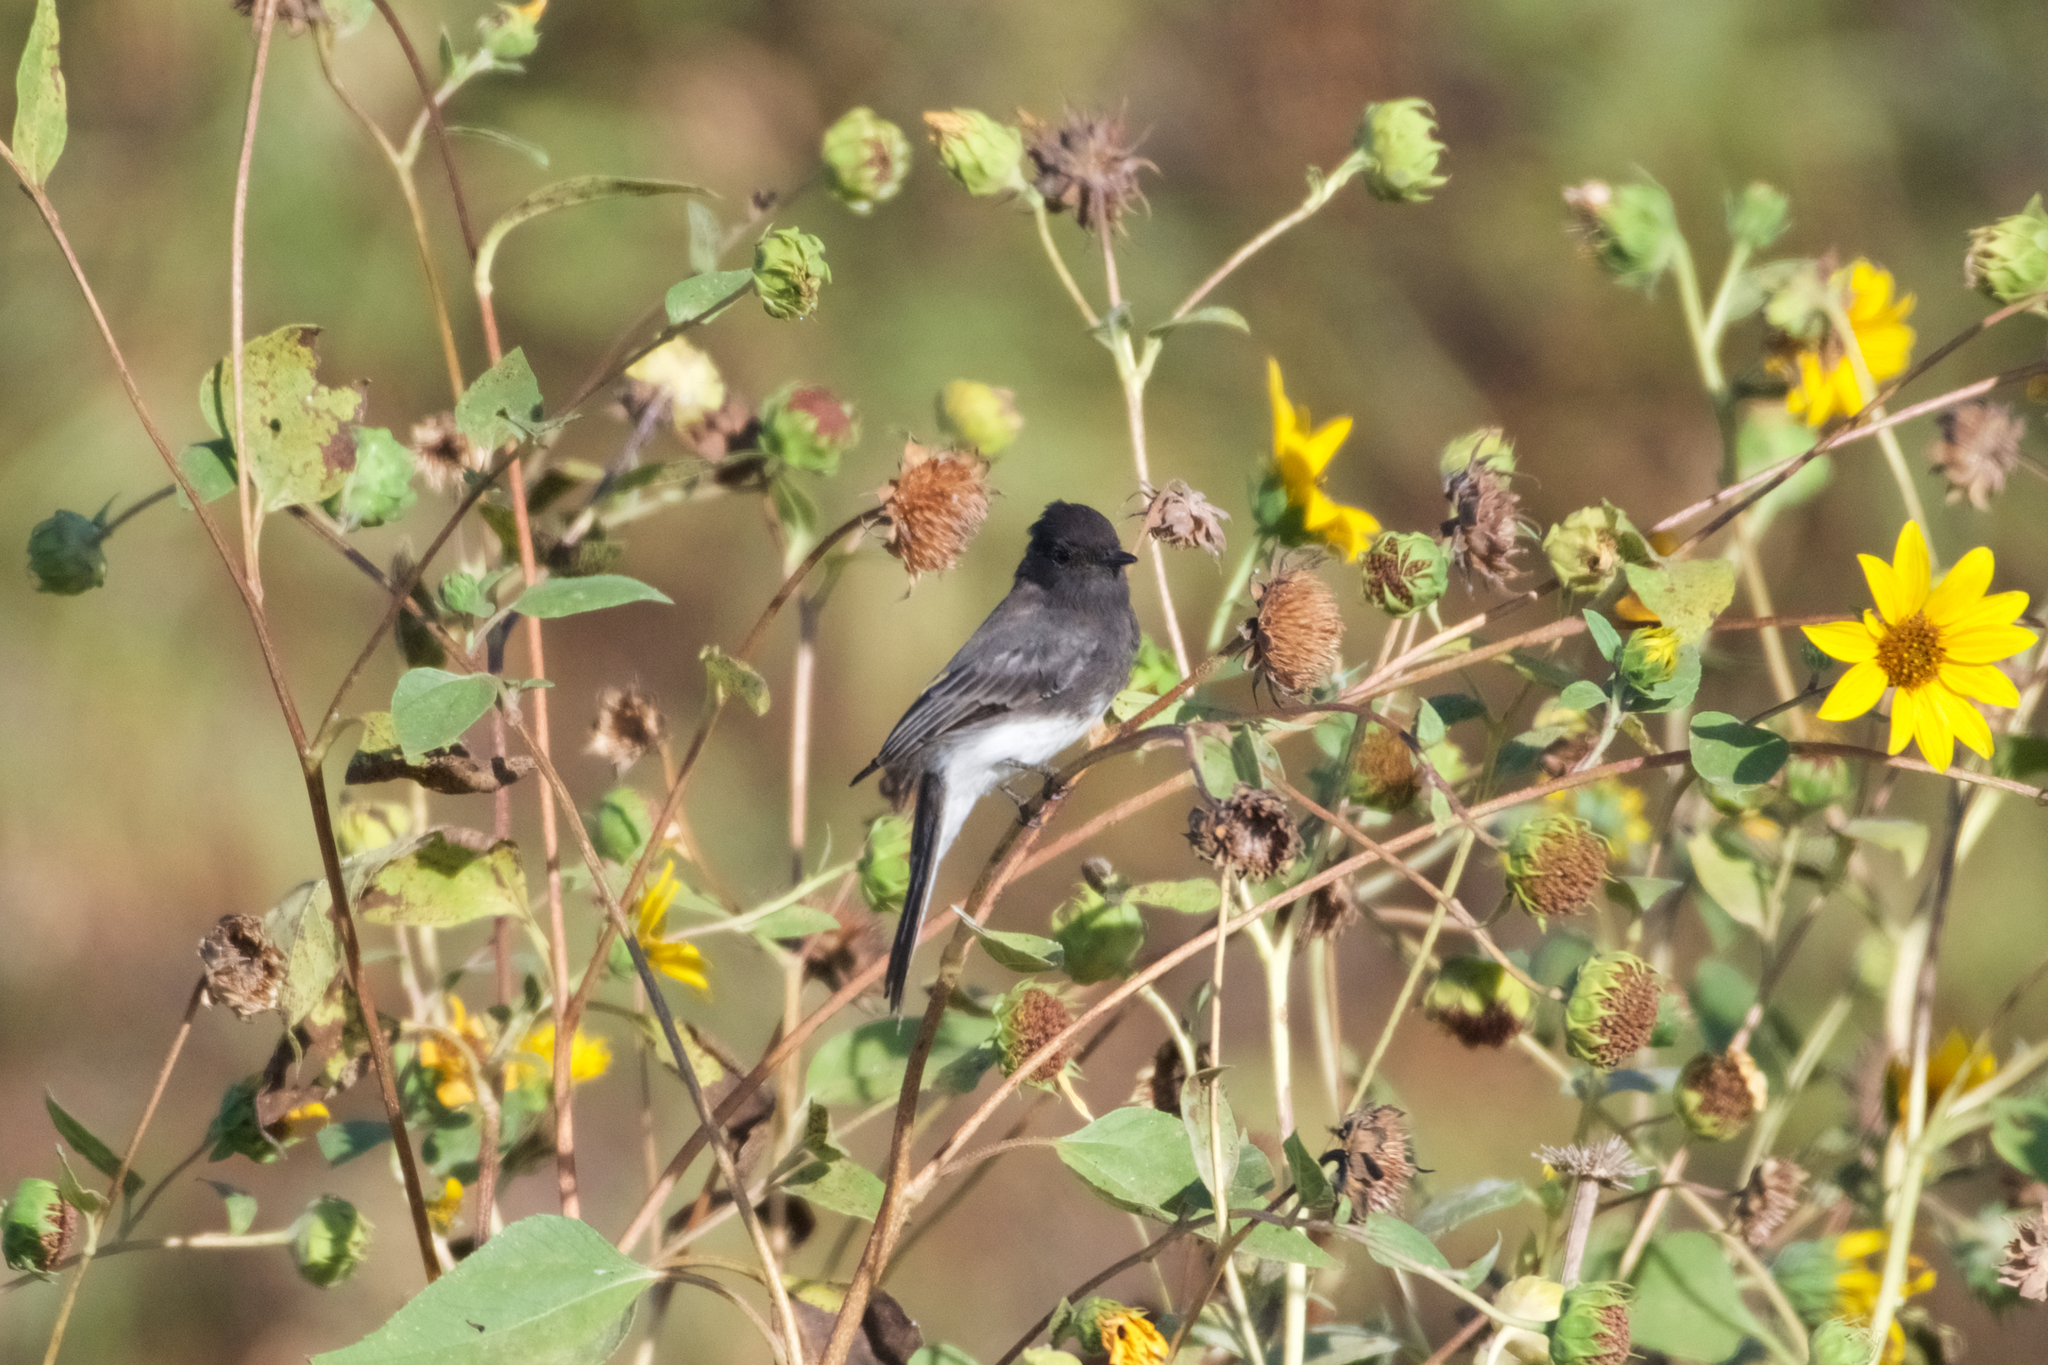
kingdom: Animalia
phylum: Chordata
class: Aves
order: Passeriformes
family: Tyrannidae
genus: Sayornis
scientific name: Sayornis nigricans
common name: Black phoebe
